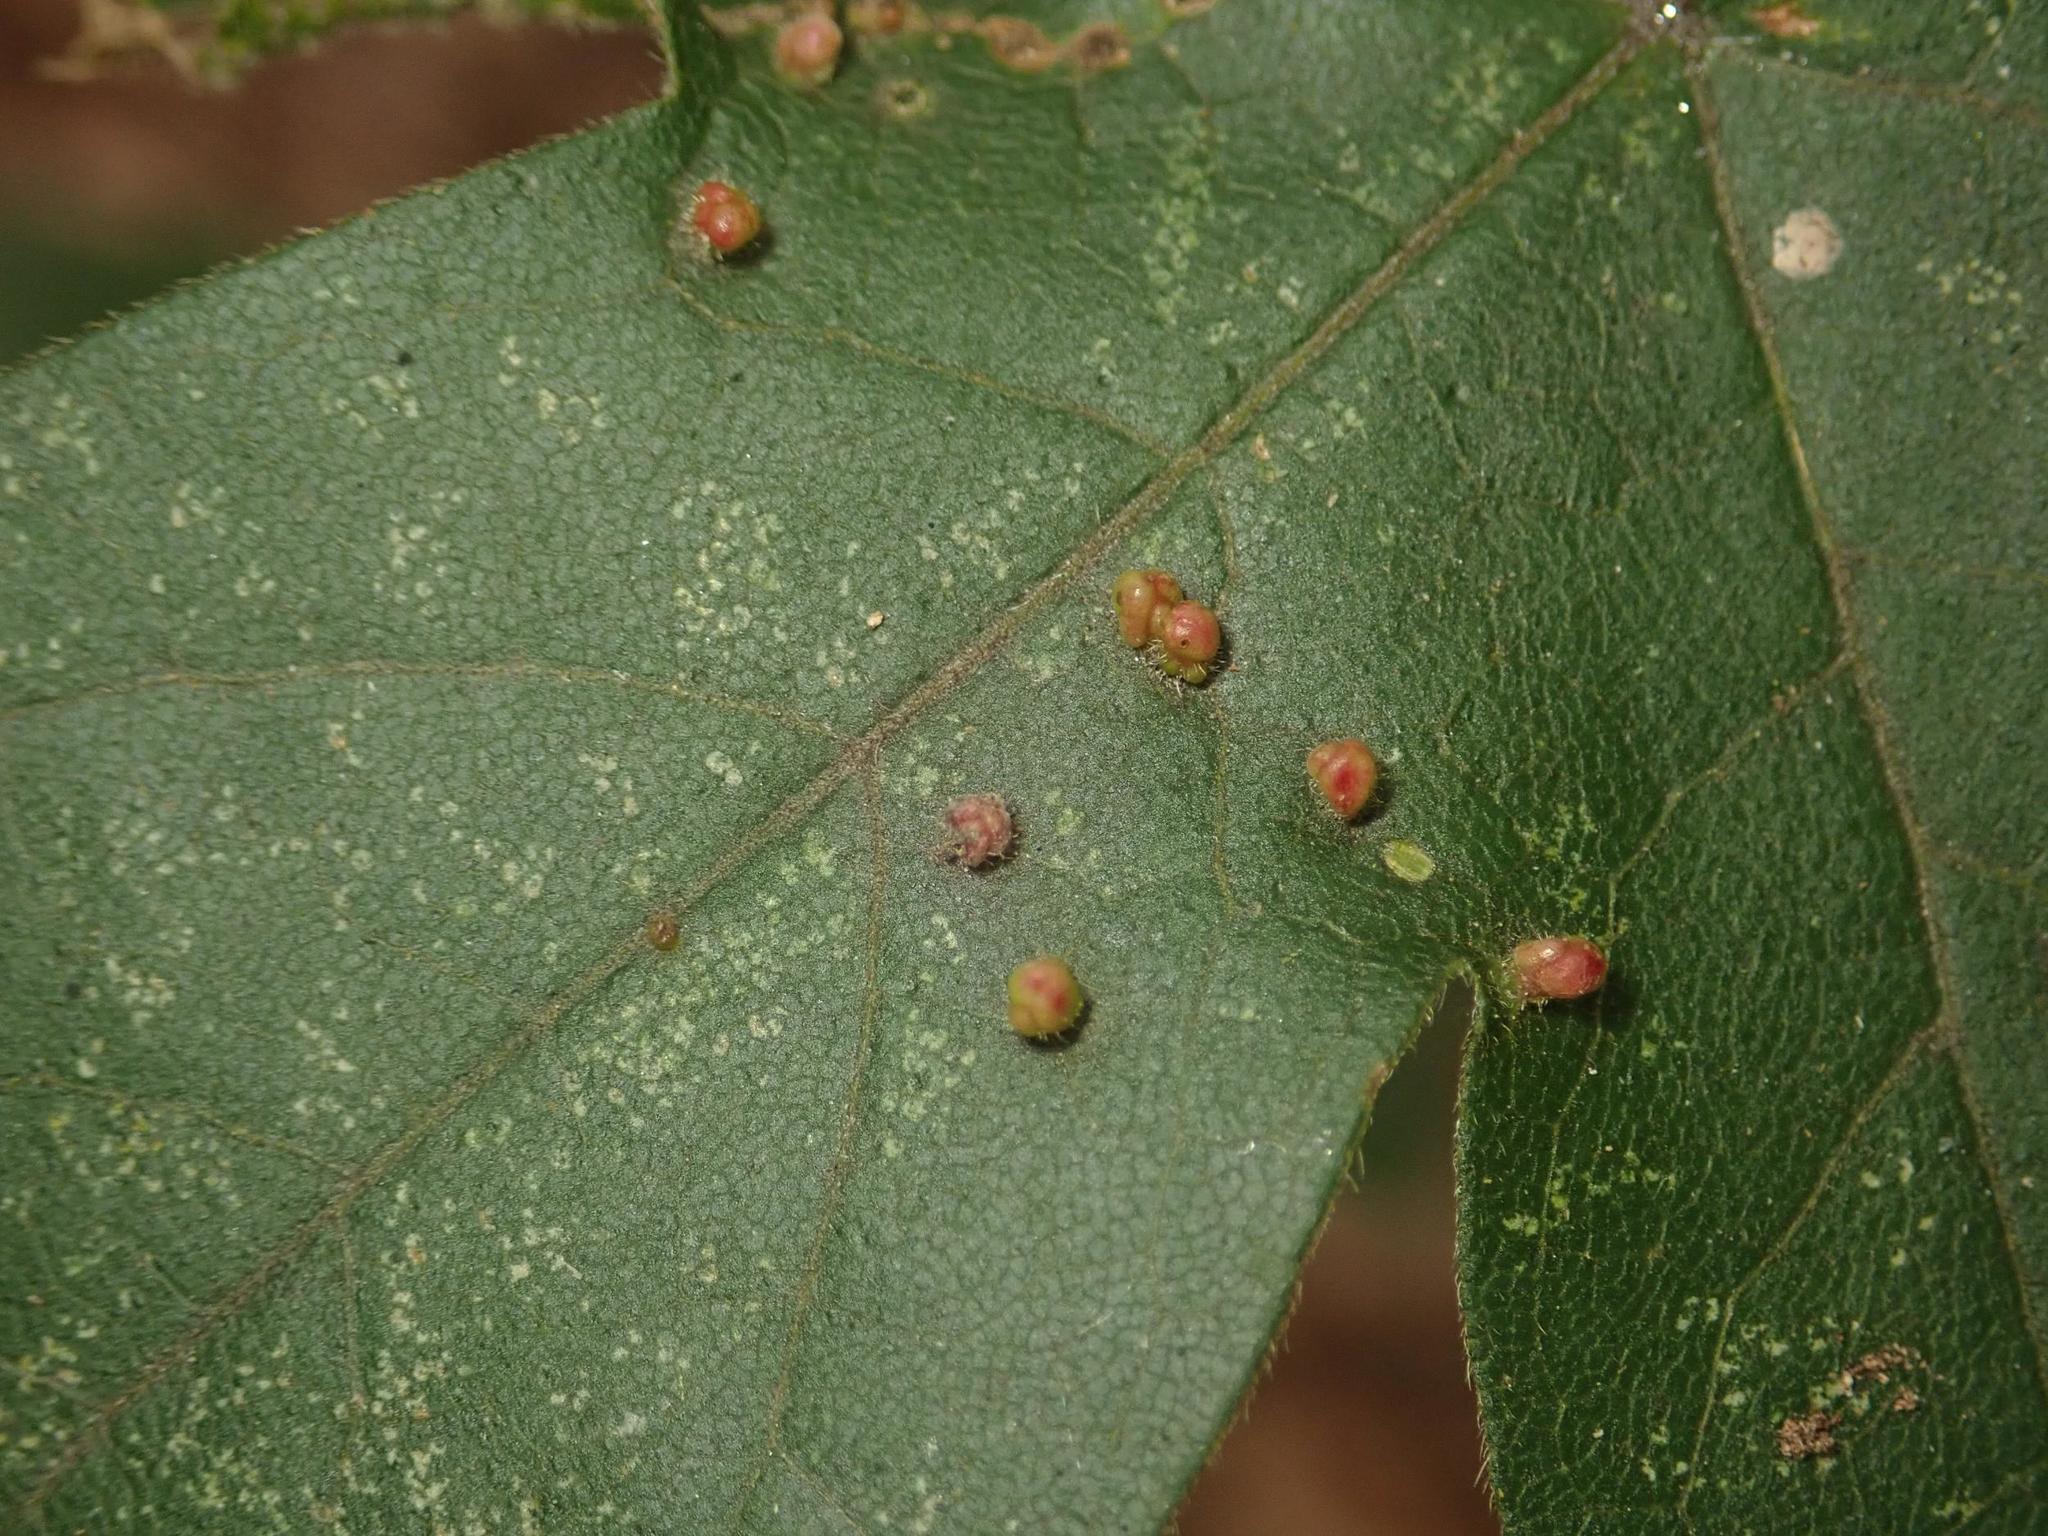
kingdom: Animalia
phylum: Arthropoda
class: Arachnida
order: Trombidiformes
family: Eriophyidae
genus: Aceria
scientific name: Aceria myriadeum
